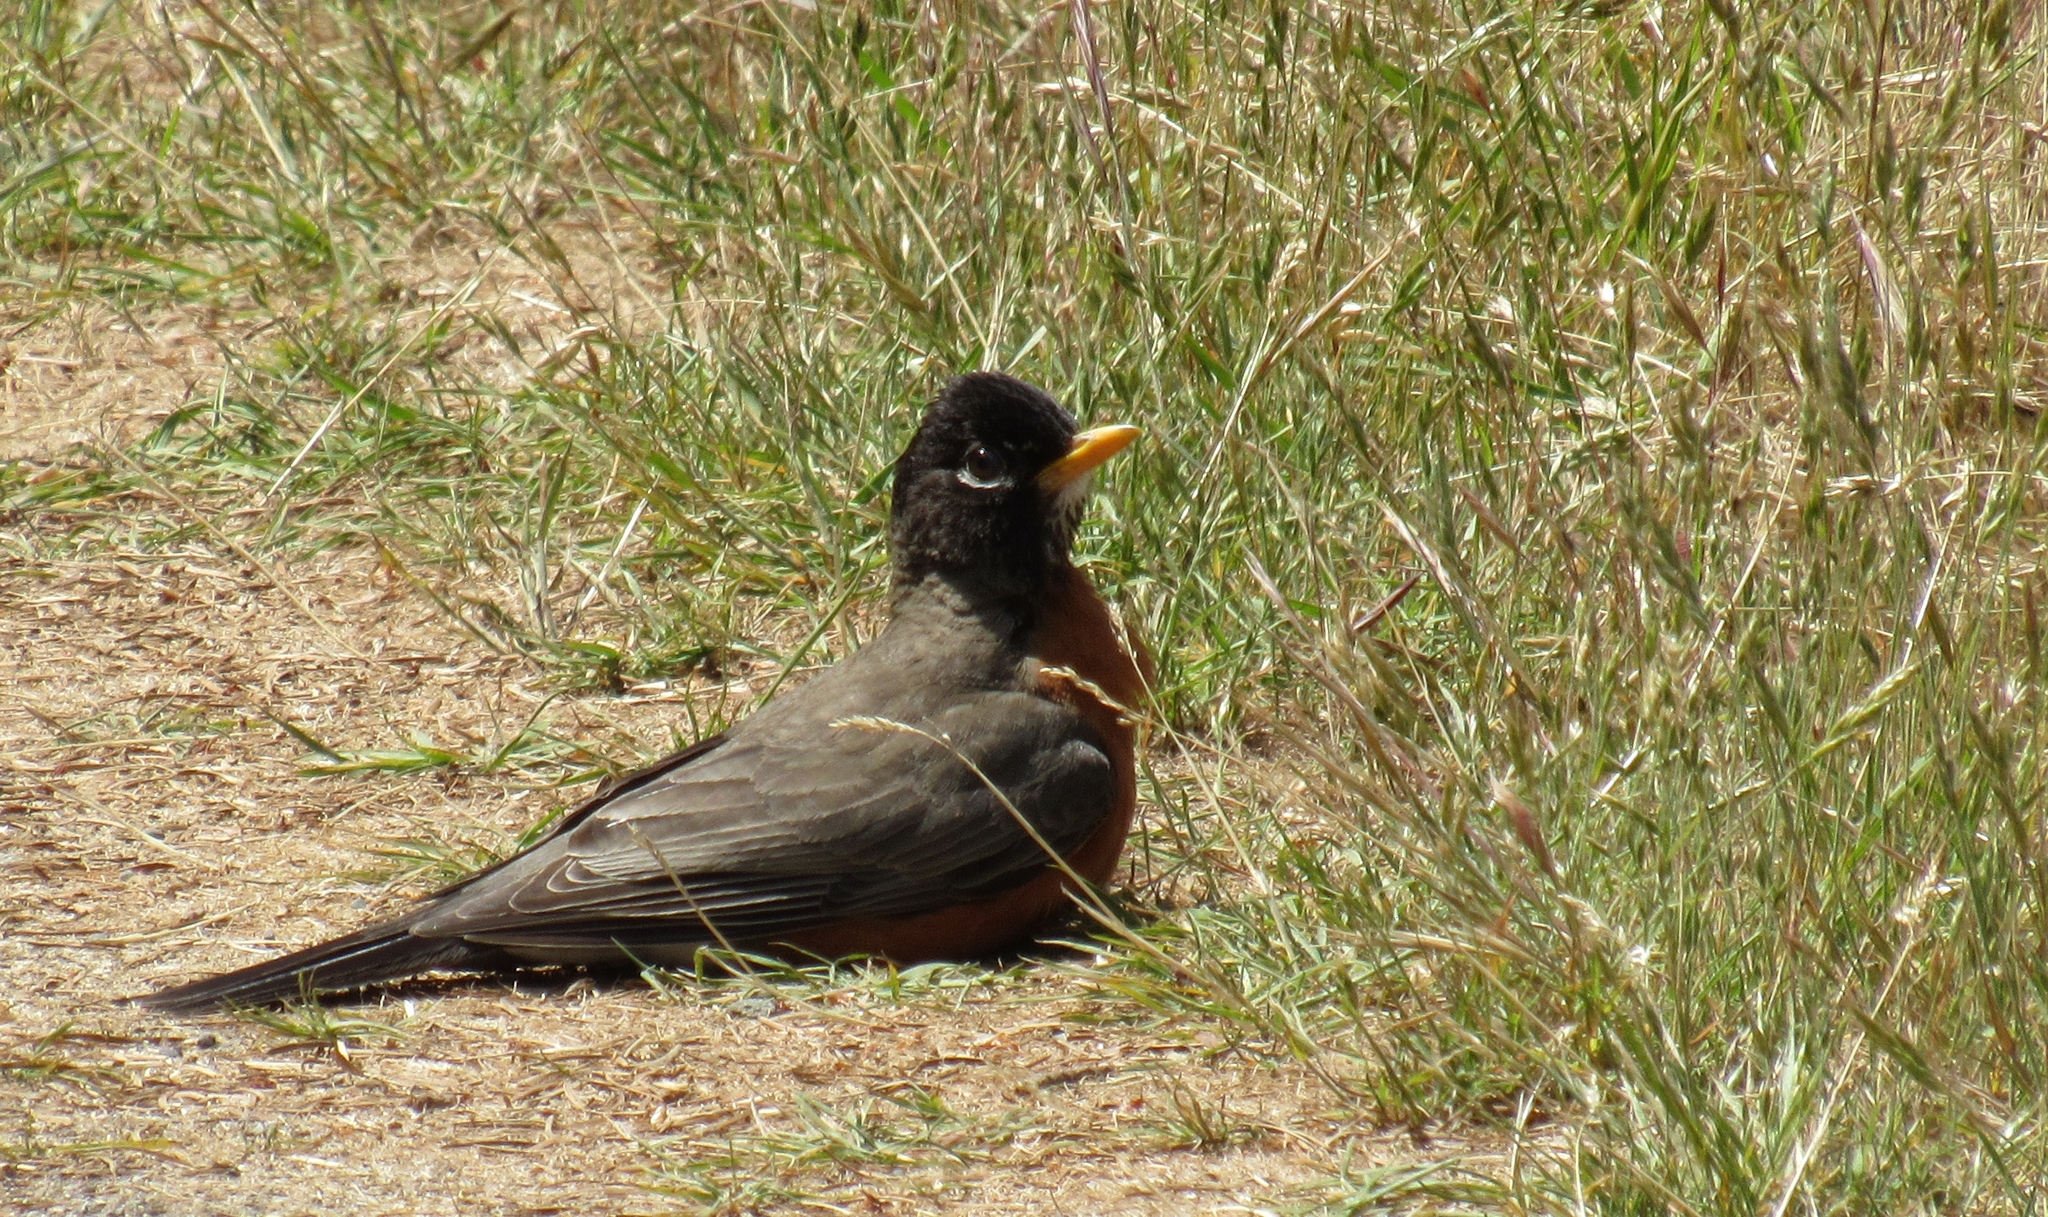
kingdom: Animalia
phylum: Chordata
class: Aves
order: Passeriformes
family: Turdidae
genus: Turdus
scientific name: Turdus migratorius
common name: American robin
